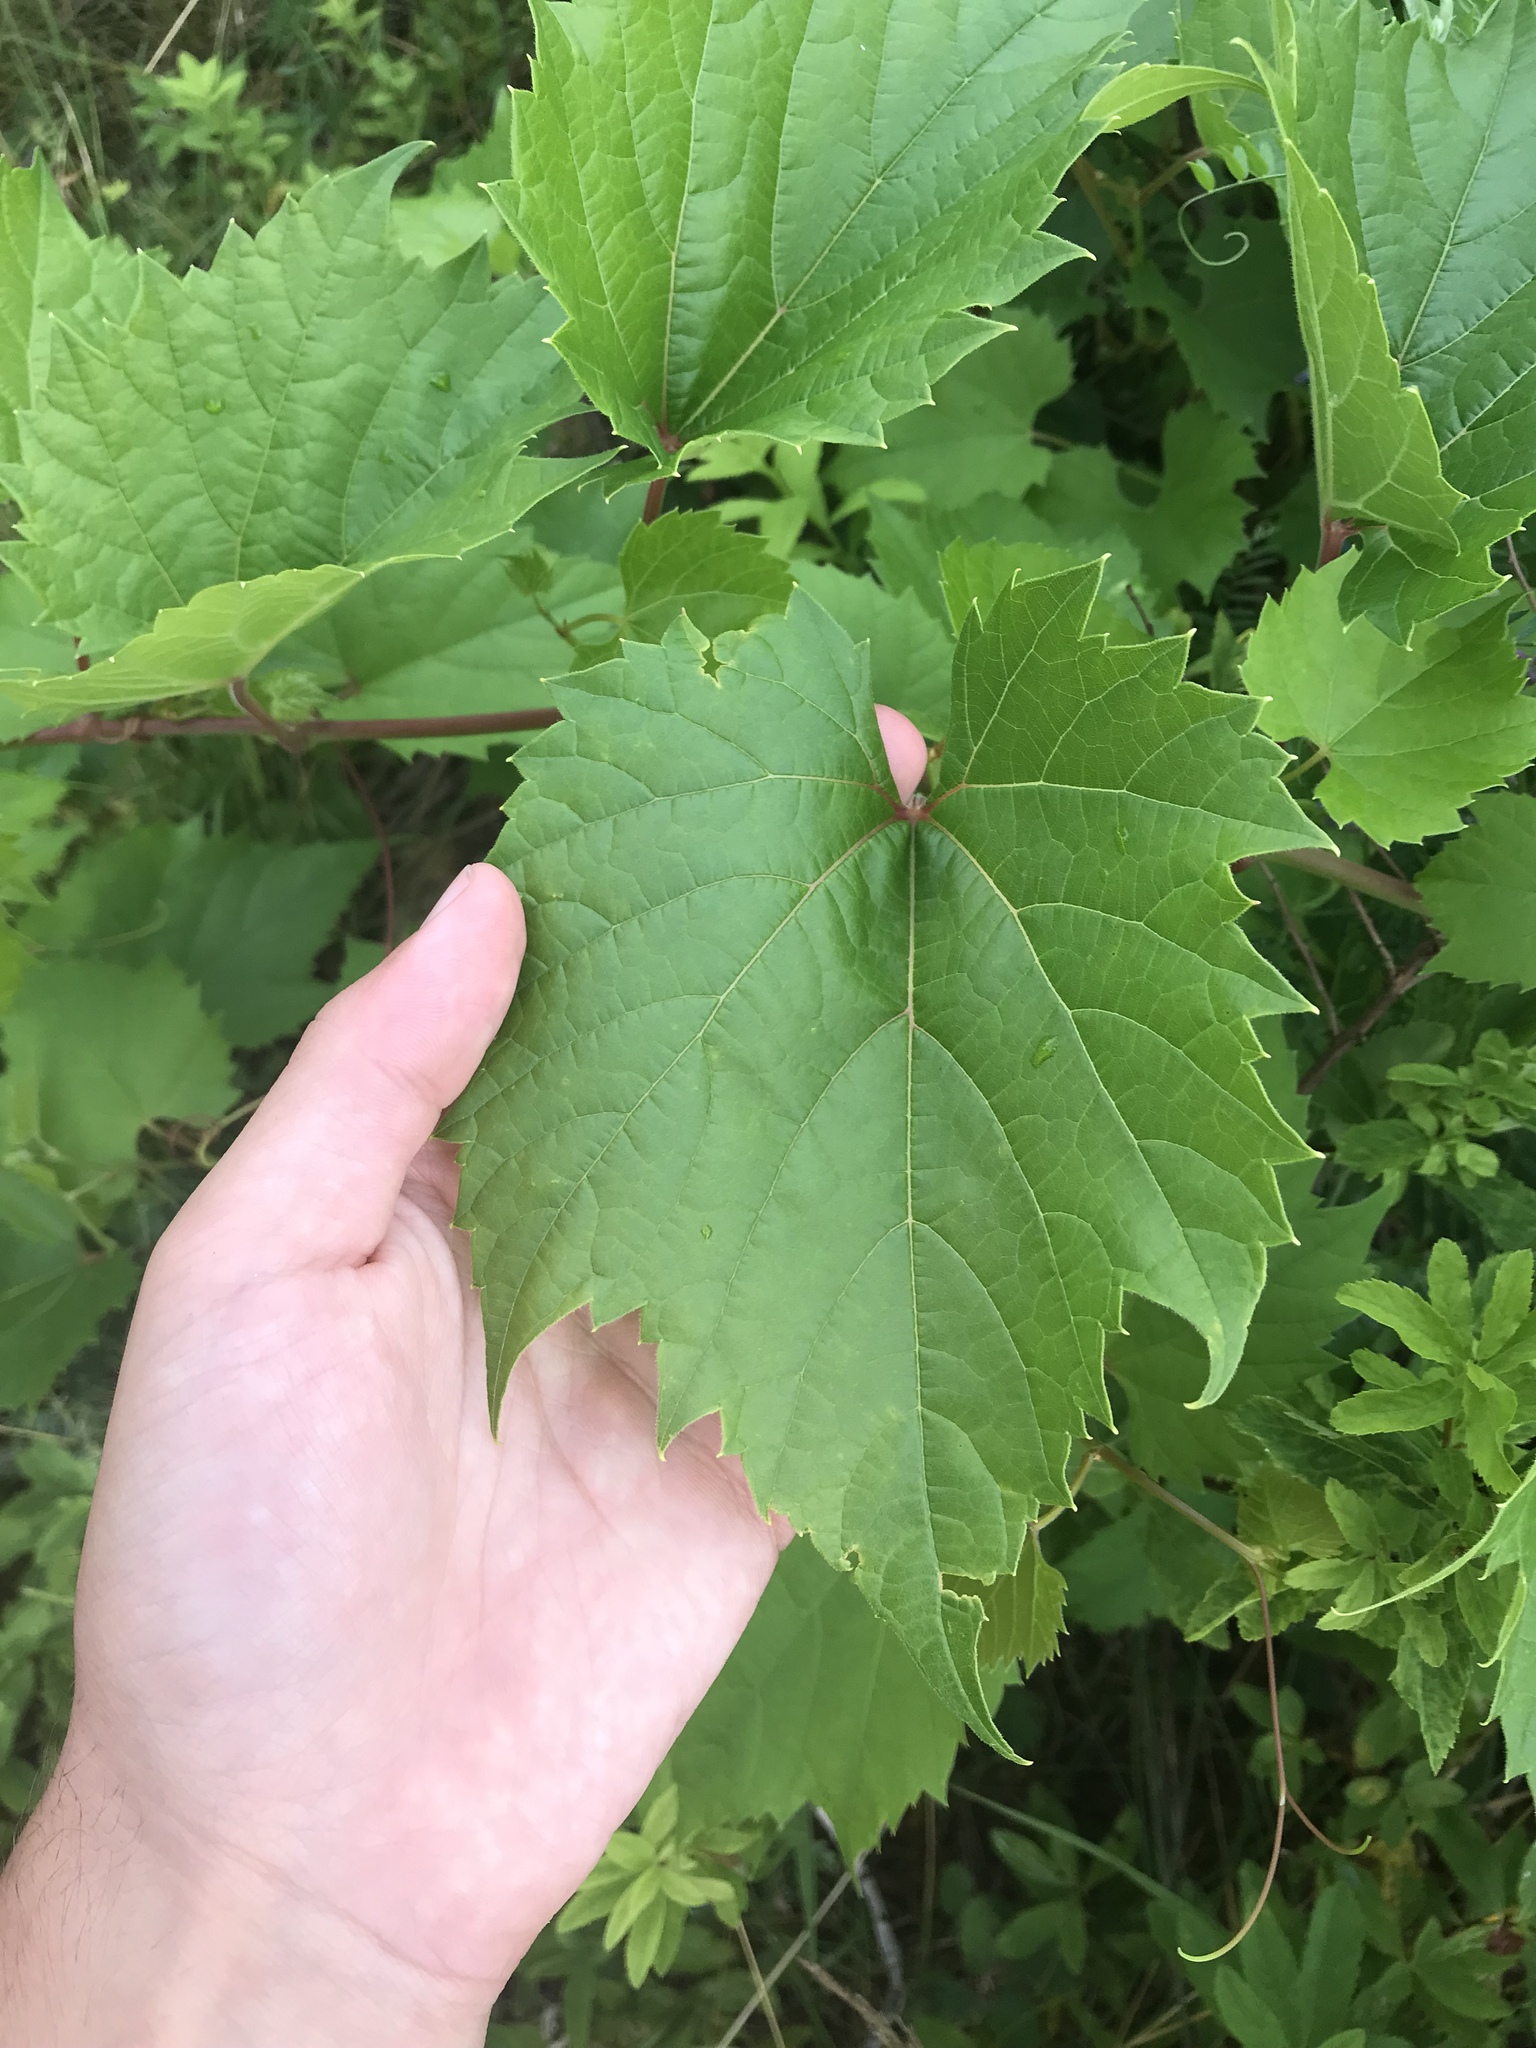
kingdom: Plantae
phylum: Tracheophyta
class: Magnoliopsida
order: Vitales
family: Vitaceae
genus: Vitis
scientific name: Vitis riparia
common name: Frost grape
